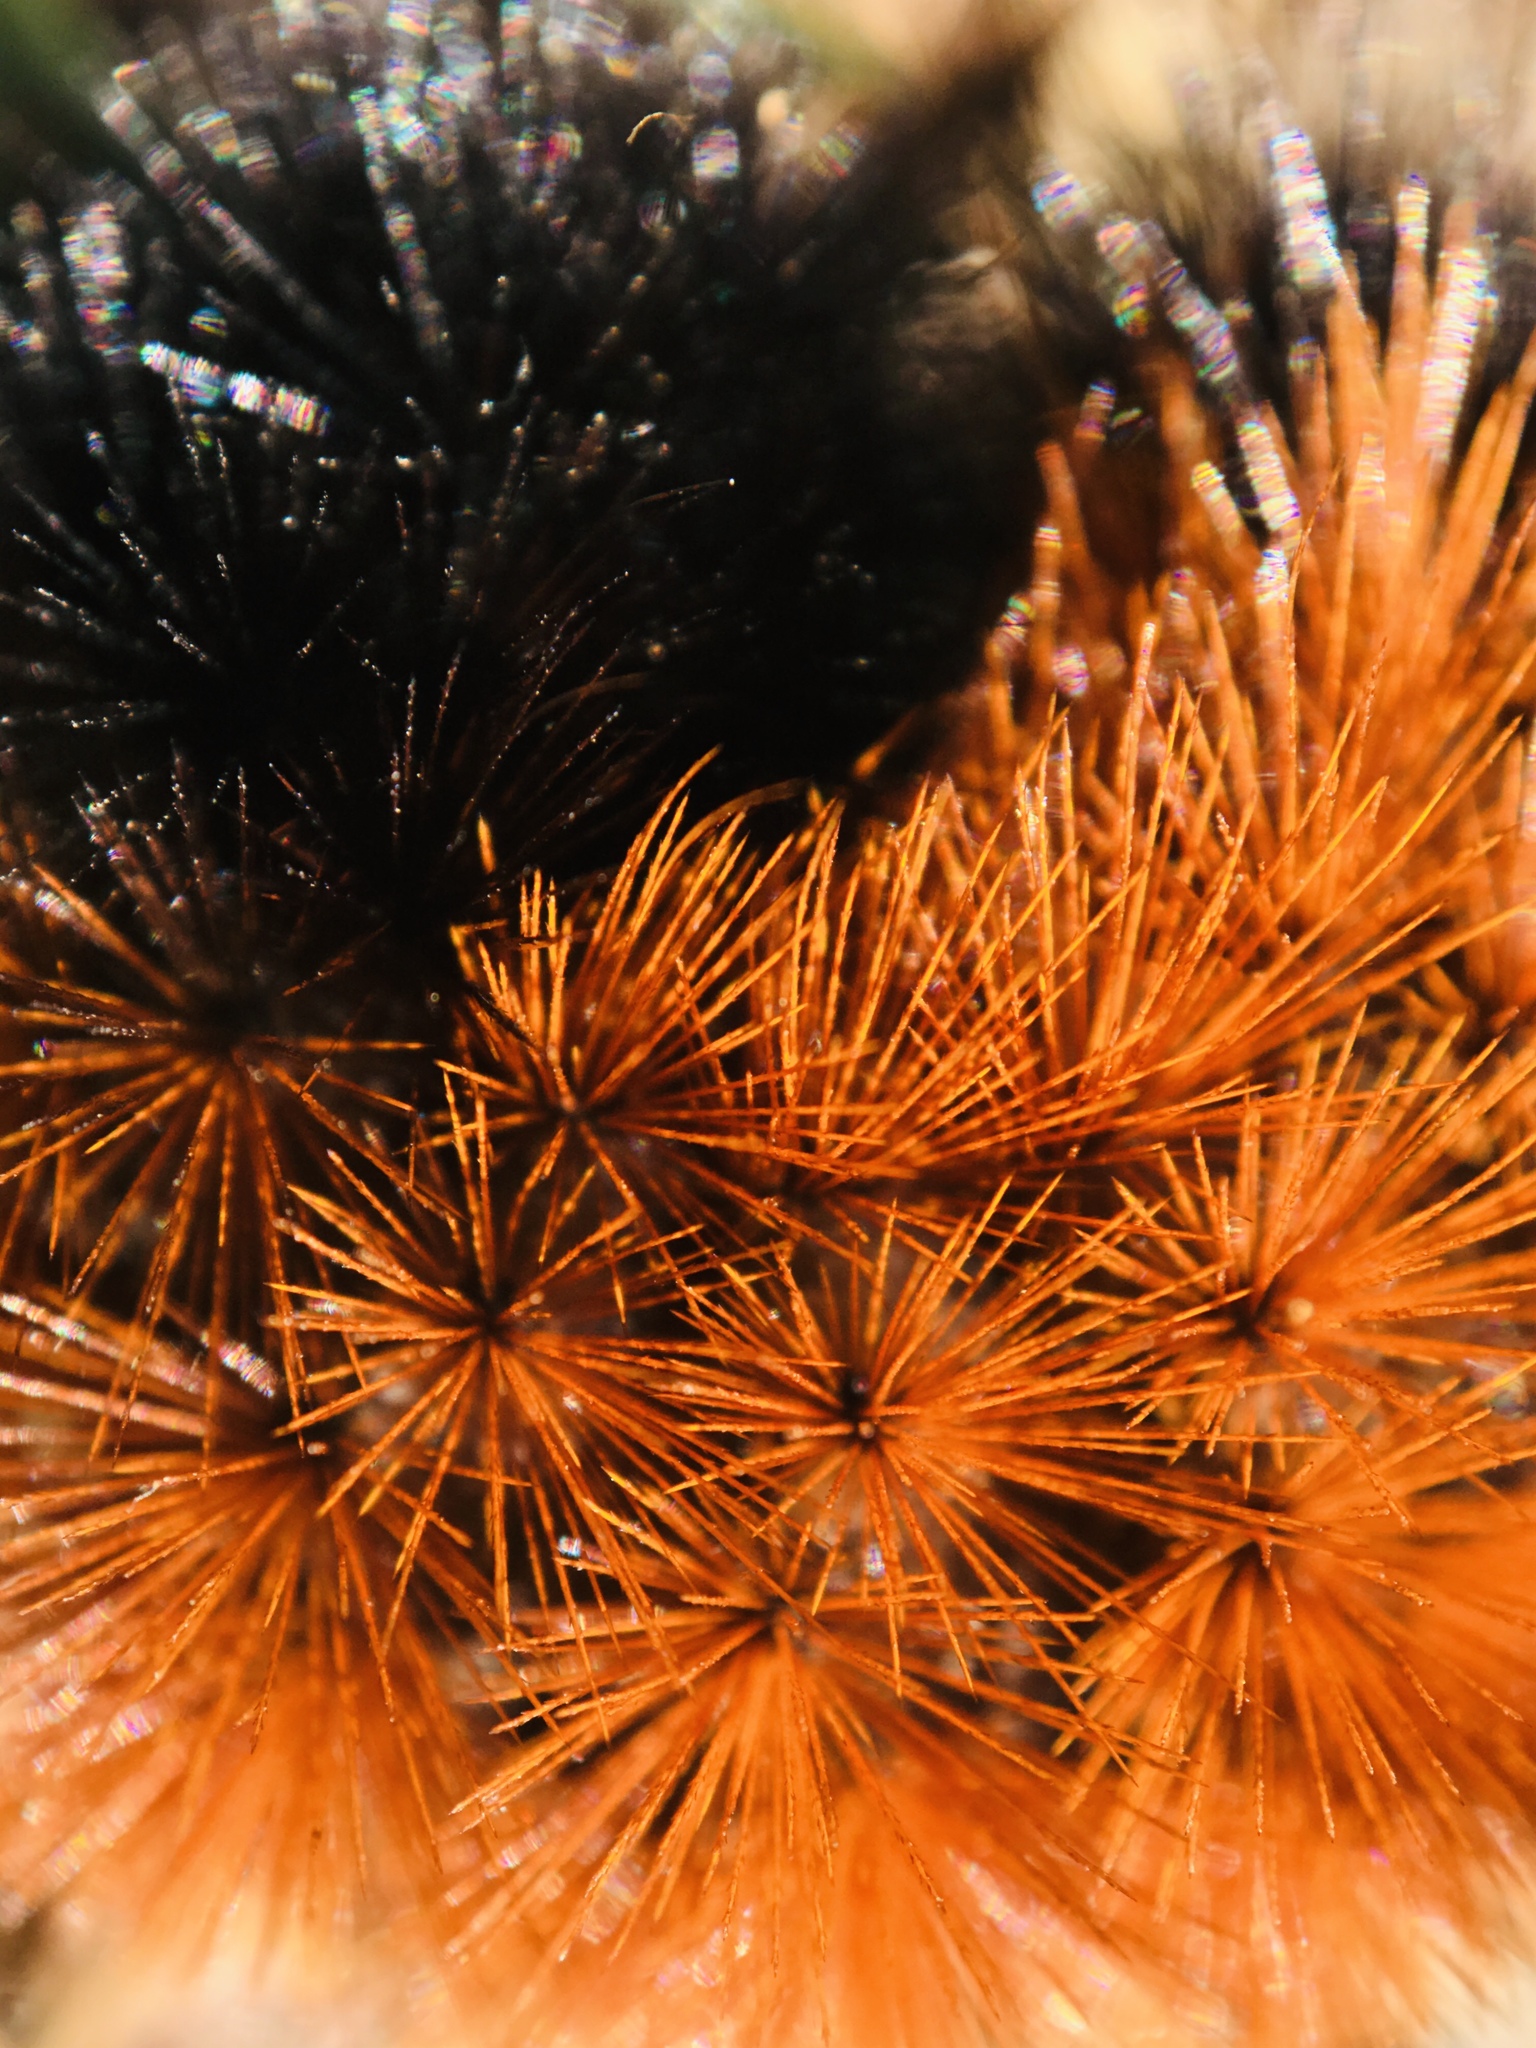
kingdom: Animalia
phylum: Arthropoda
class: Insecta
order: Lepidoptera
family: Erebidae
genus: Pyrrharctia
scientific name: Pyrrharctia isabella
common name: Isabella tiger moth
